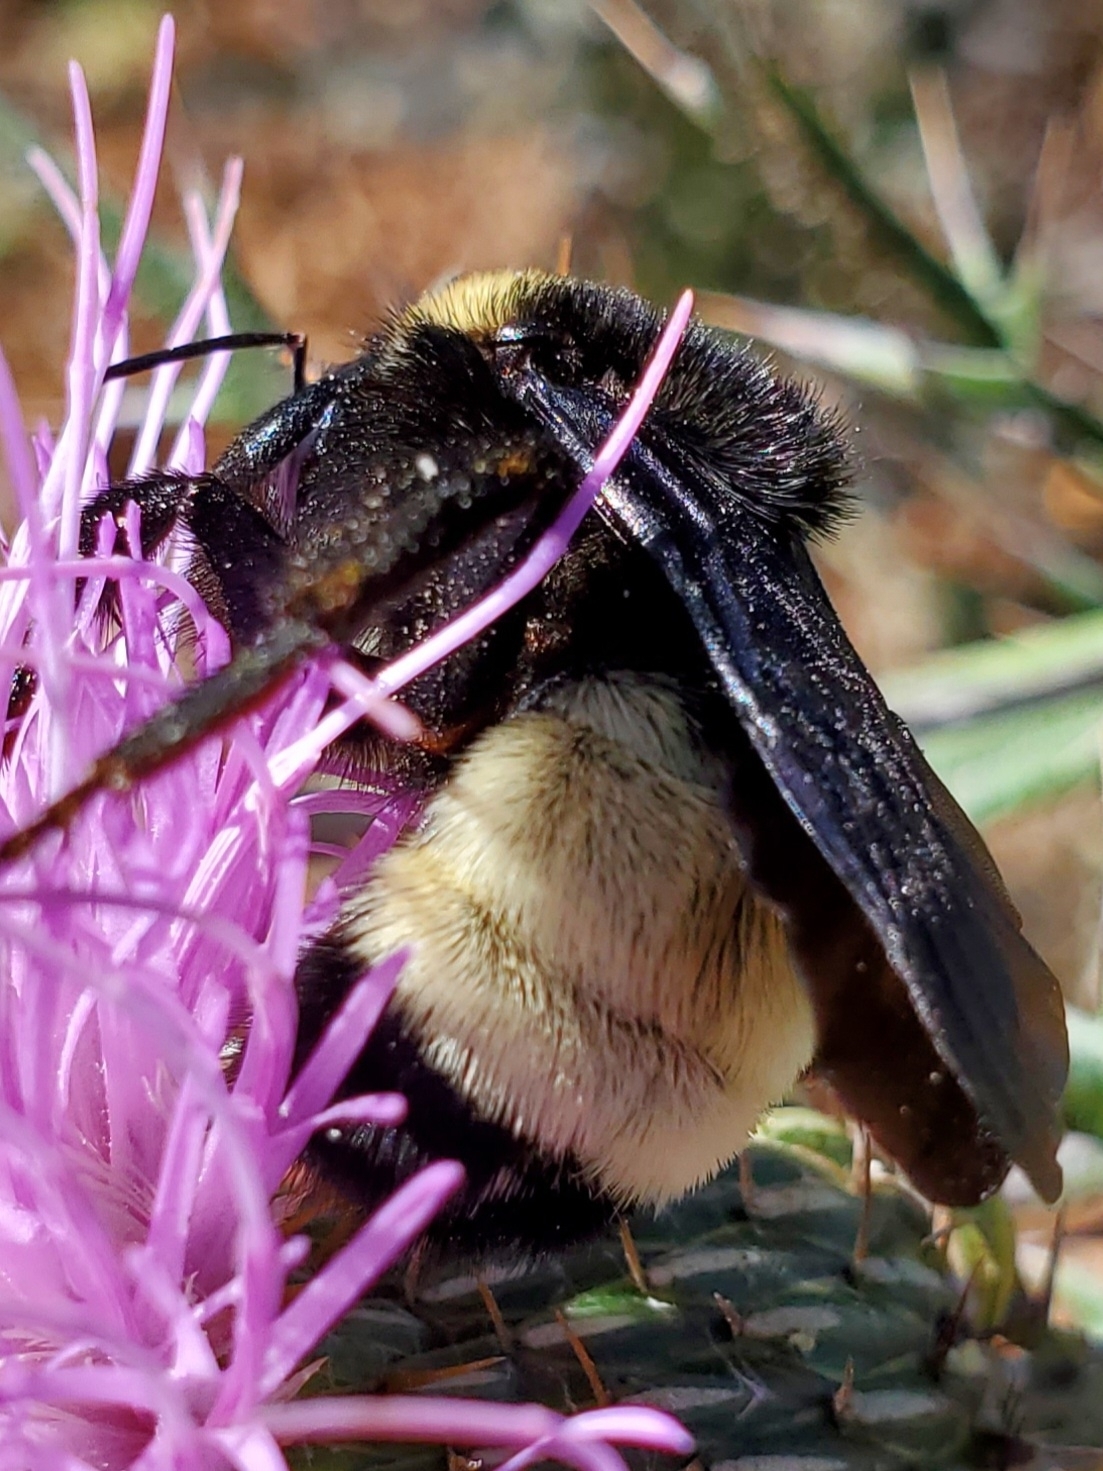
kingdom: Animalia
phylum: Arthropoda
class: Insecta
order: Hymenoptera
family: Apidae
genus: Bombus
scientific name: Bombus pensylvanicus
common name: Bumble bee
